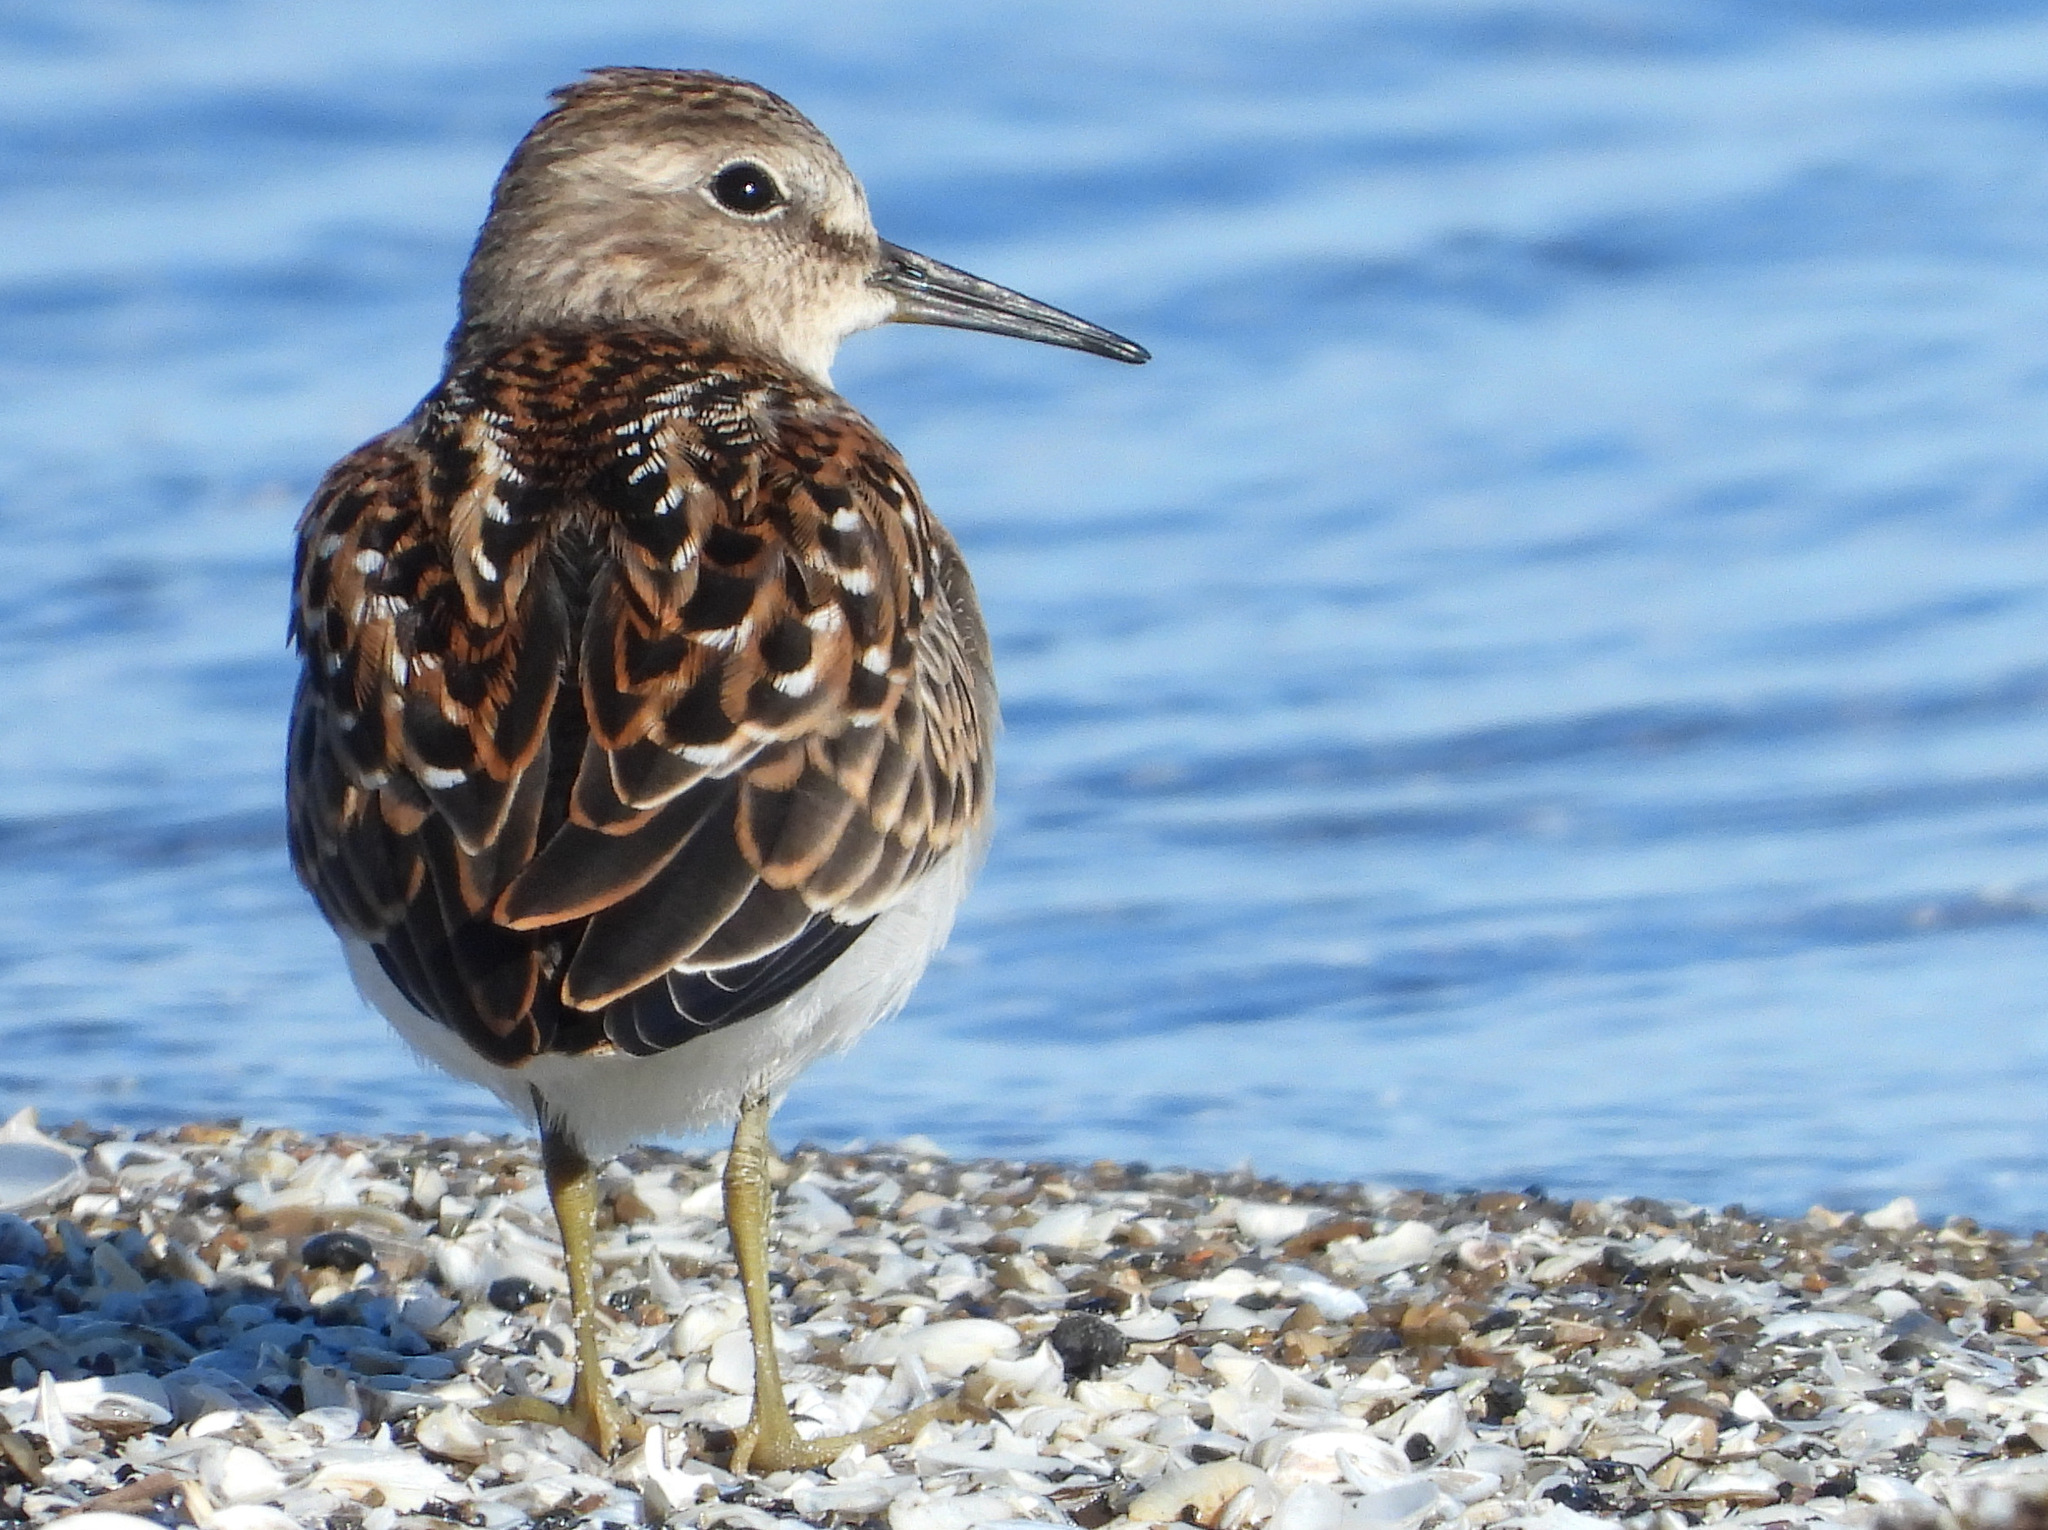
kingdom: Animalia
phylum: Chordata
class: Aves
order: Charadriiformes
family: Scolopacidae
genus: Calidris
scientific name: Calidris minutilla
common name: Least sandpiper
